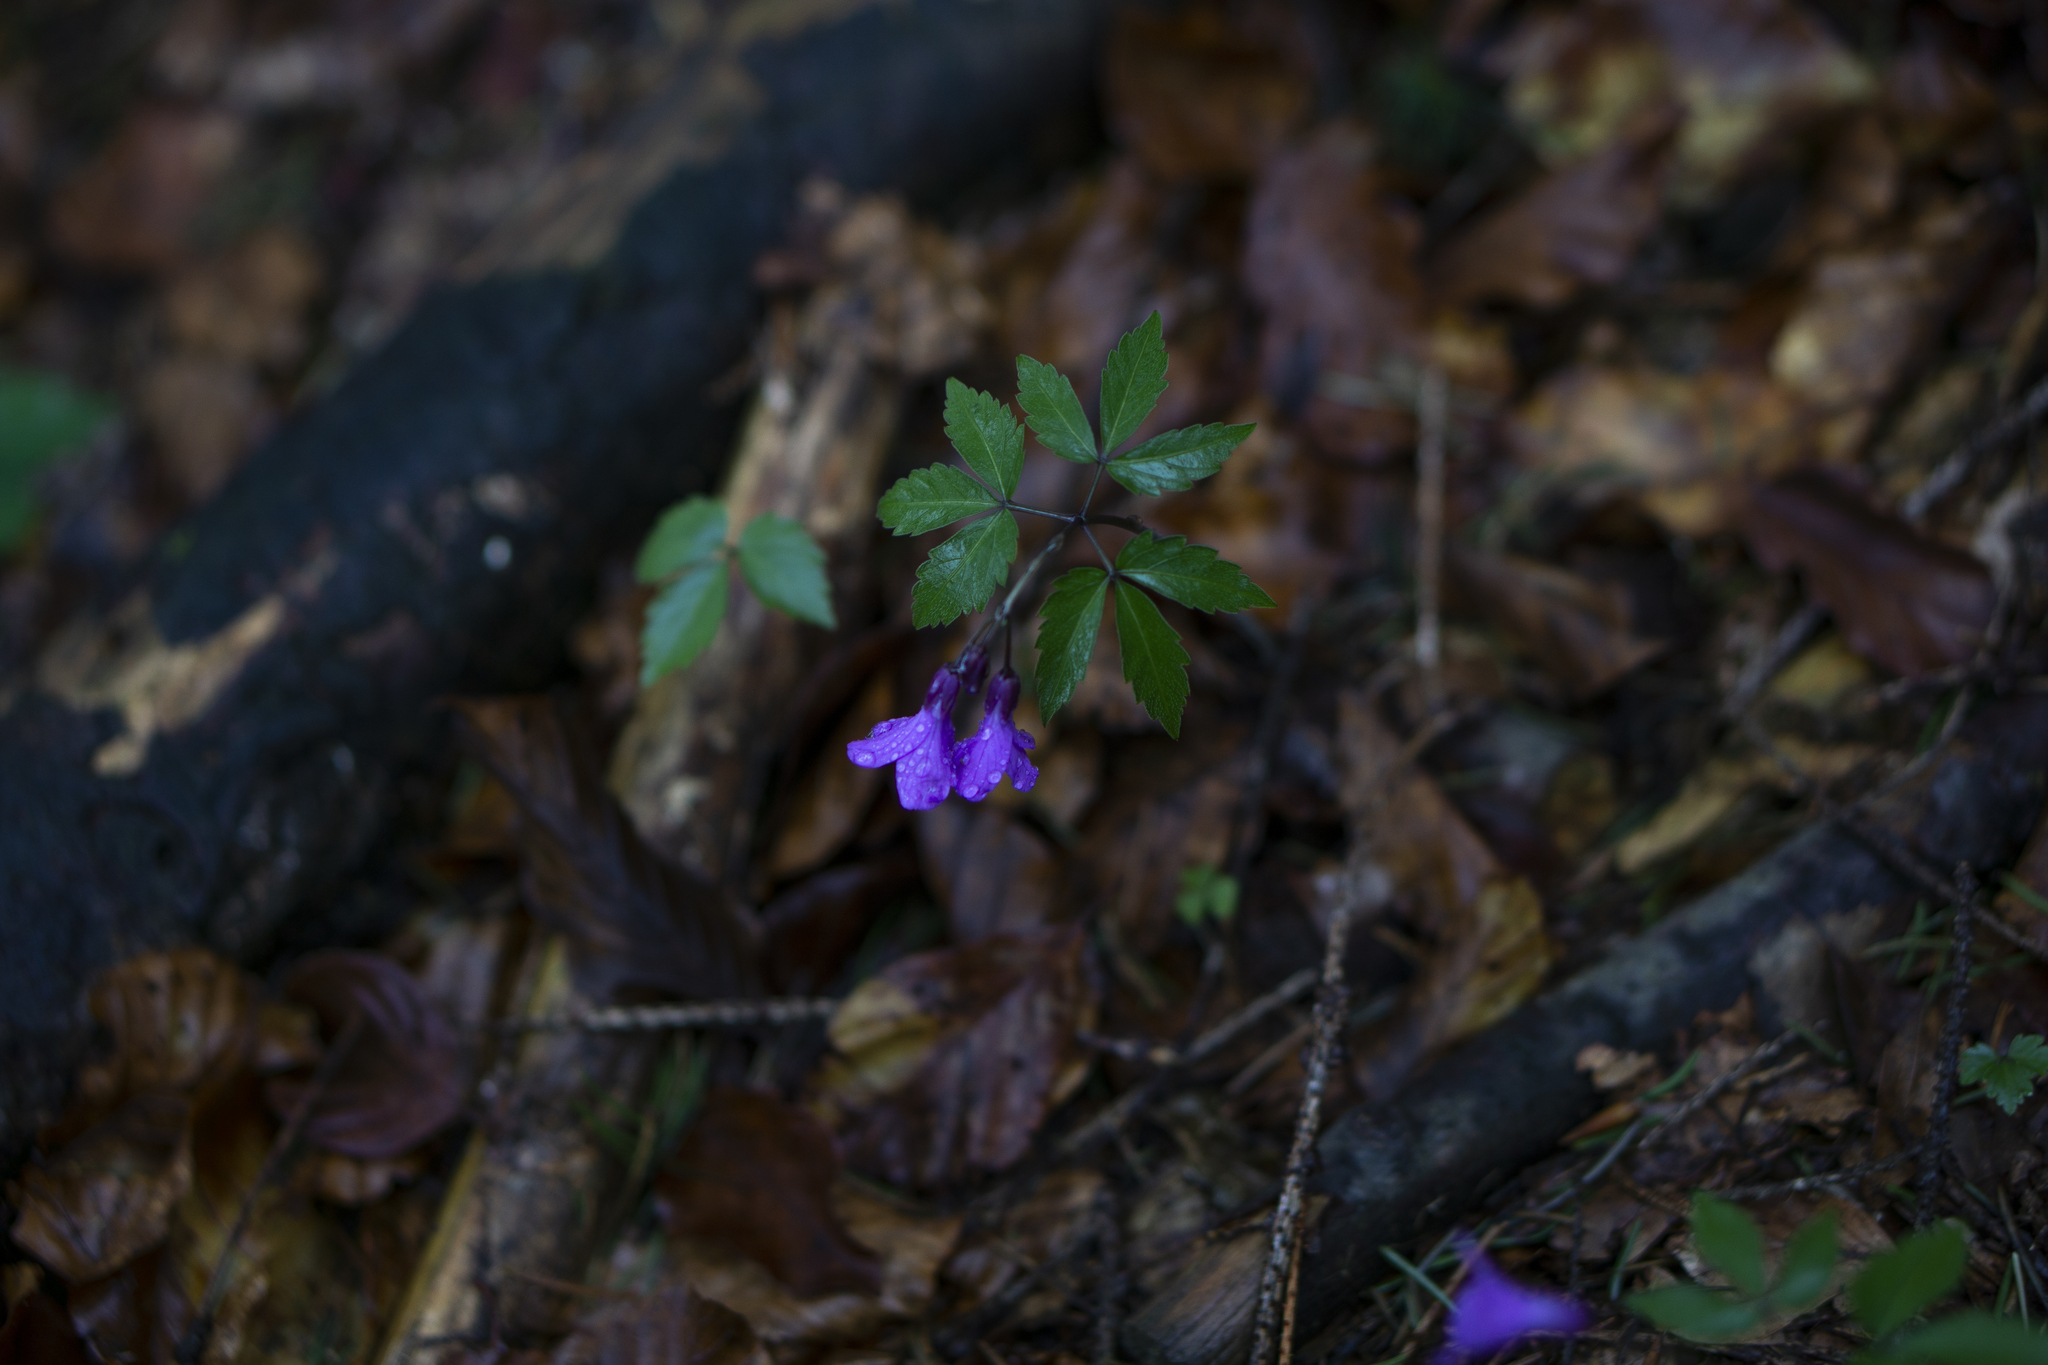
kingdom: Plantae
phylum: Tracheophyta
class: Magnoliopsida
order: Brassicales
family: Brassicaceae
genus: Cardamine
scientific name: Cardamine glanduligera
